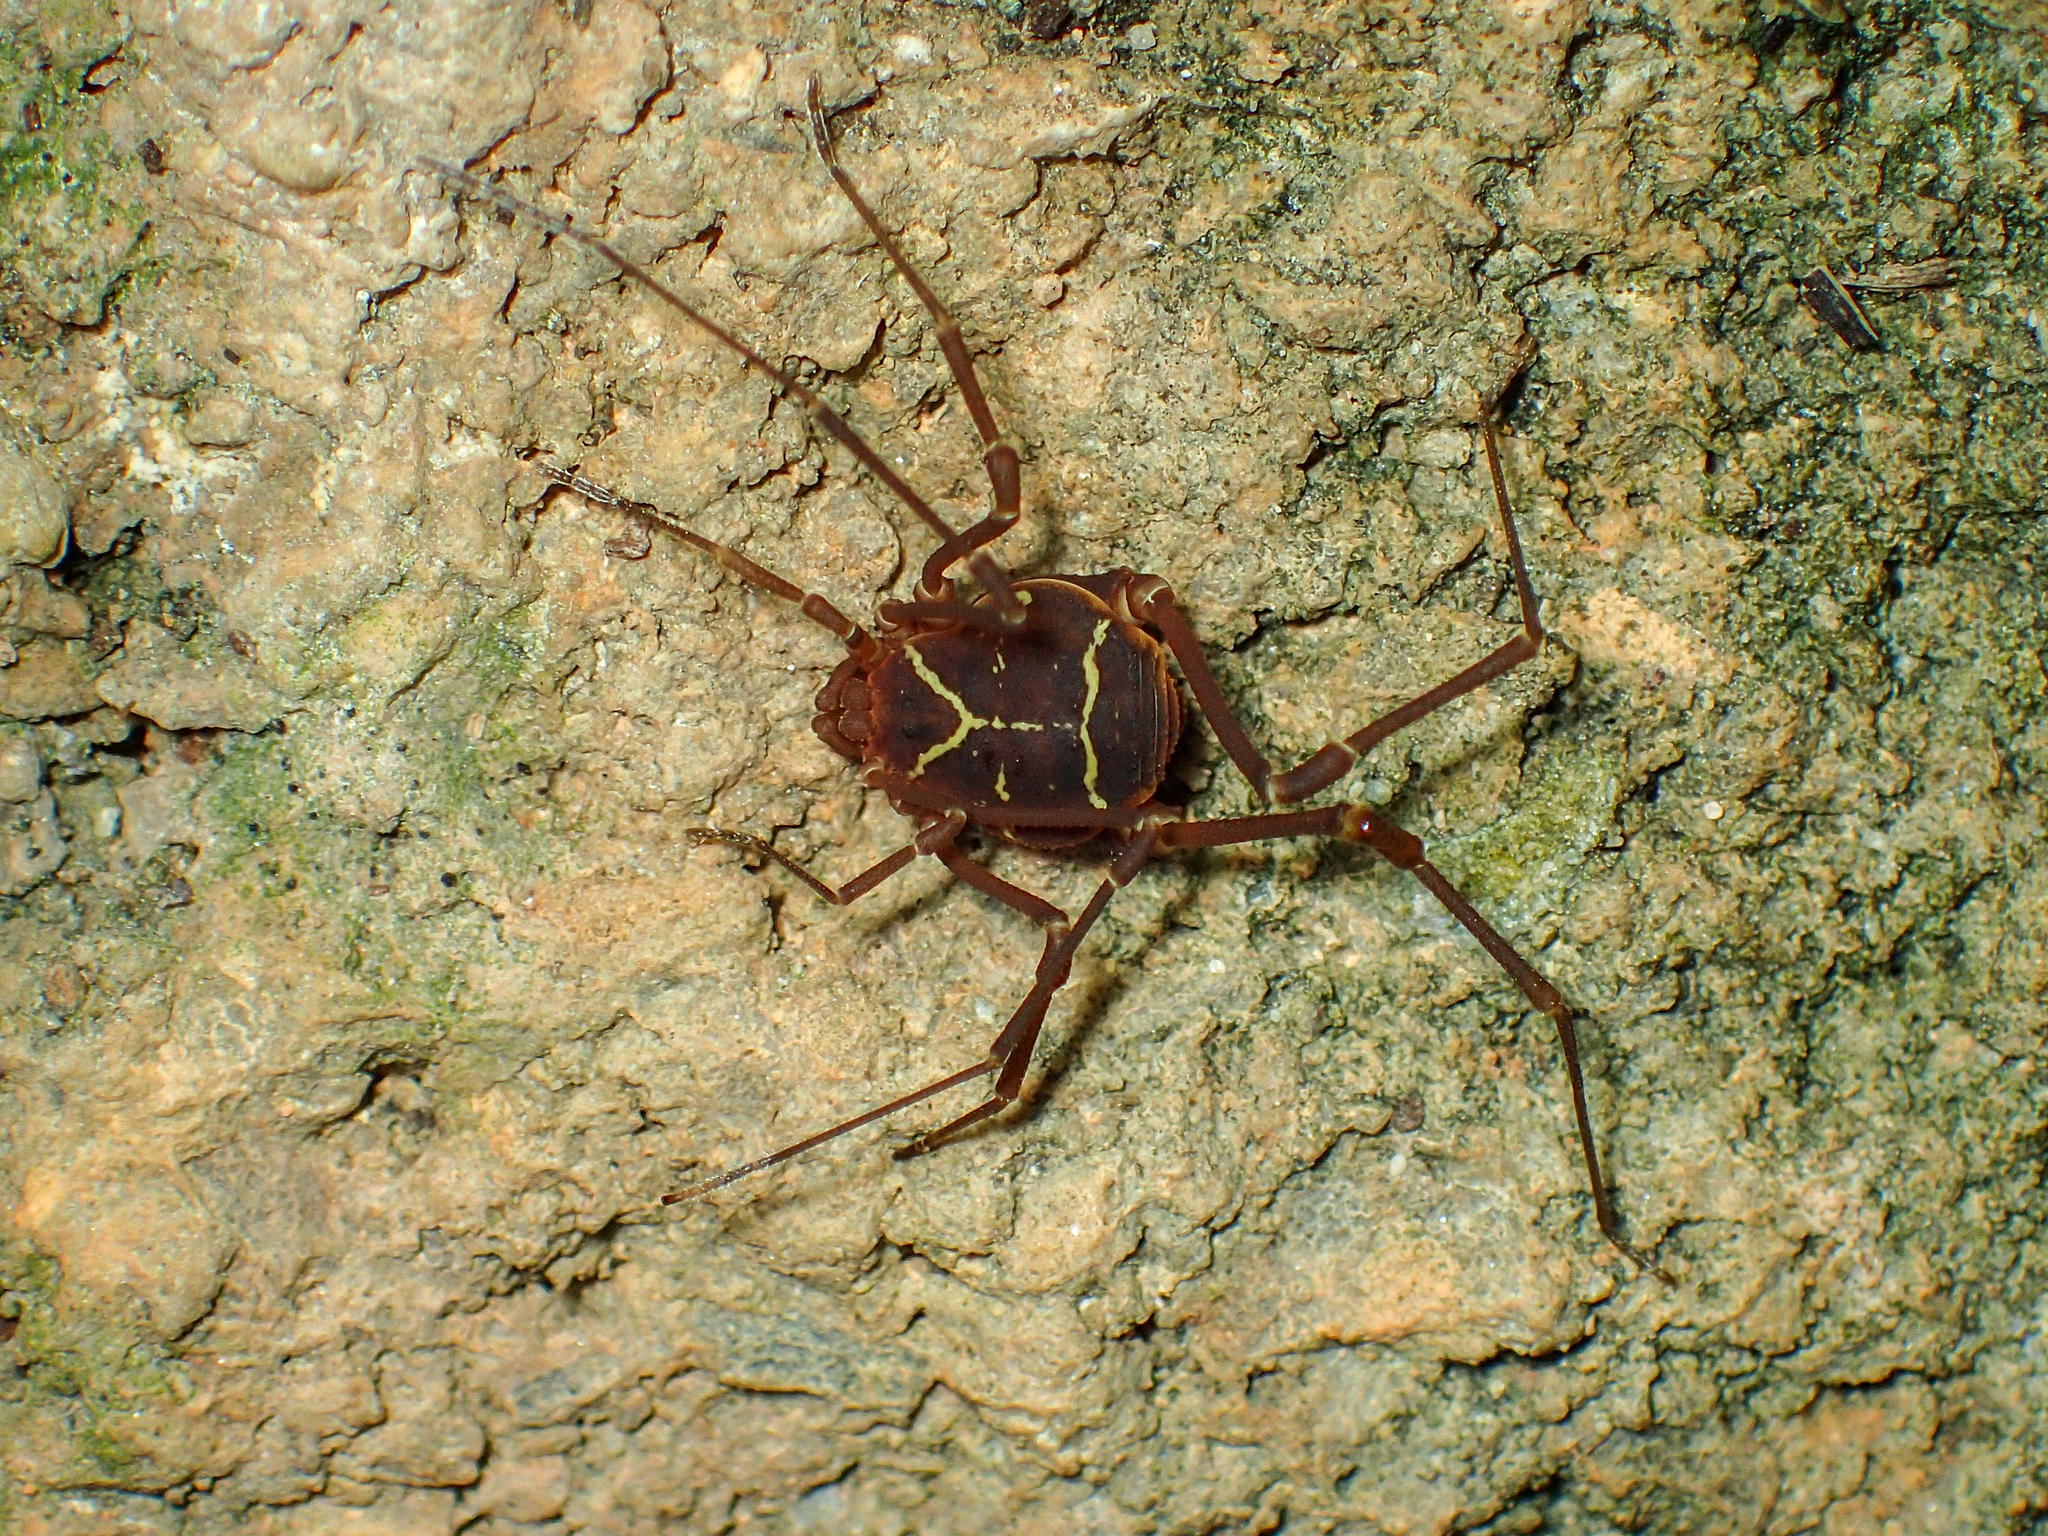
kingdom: Animalia
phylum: Arthropoda
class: Arachnida
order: Opiliones
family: Cosmetidae
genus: Libitioides
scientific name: Libitioides sayi
